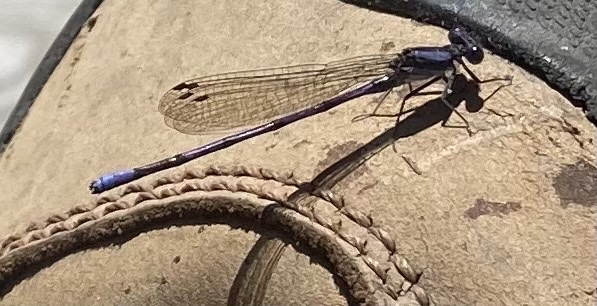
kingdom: Animalia
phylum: Arthropoda
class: Insecta
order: Odonata
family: Coenagrionidae
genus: Argia
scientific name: Argia fumipennis
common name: Variable dancer
